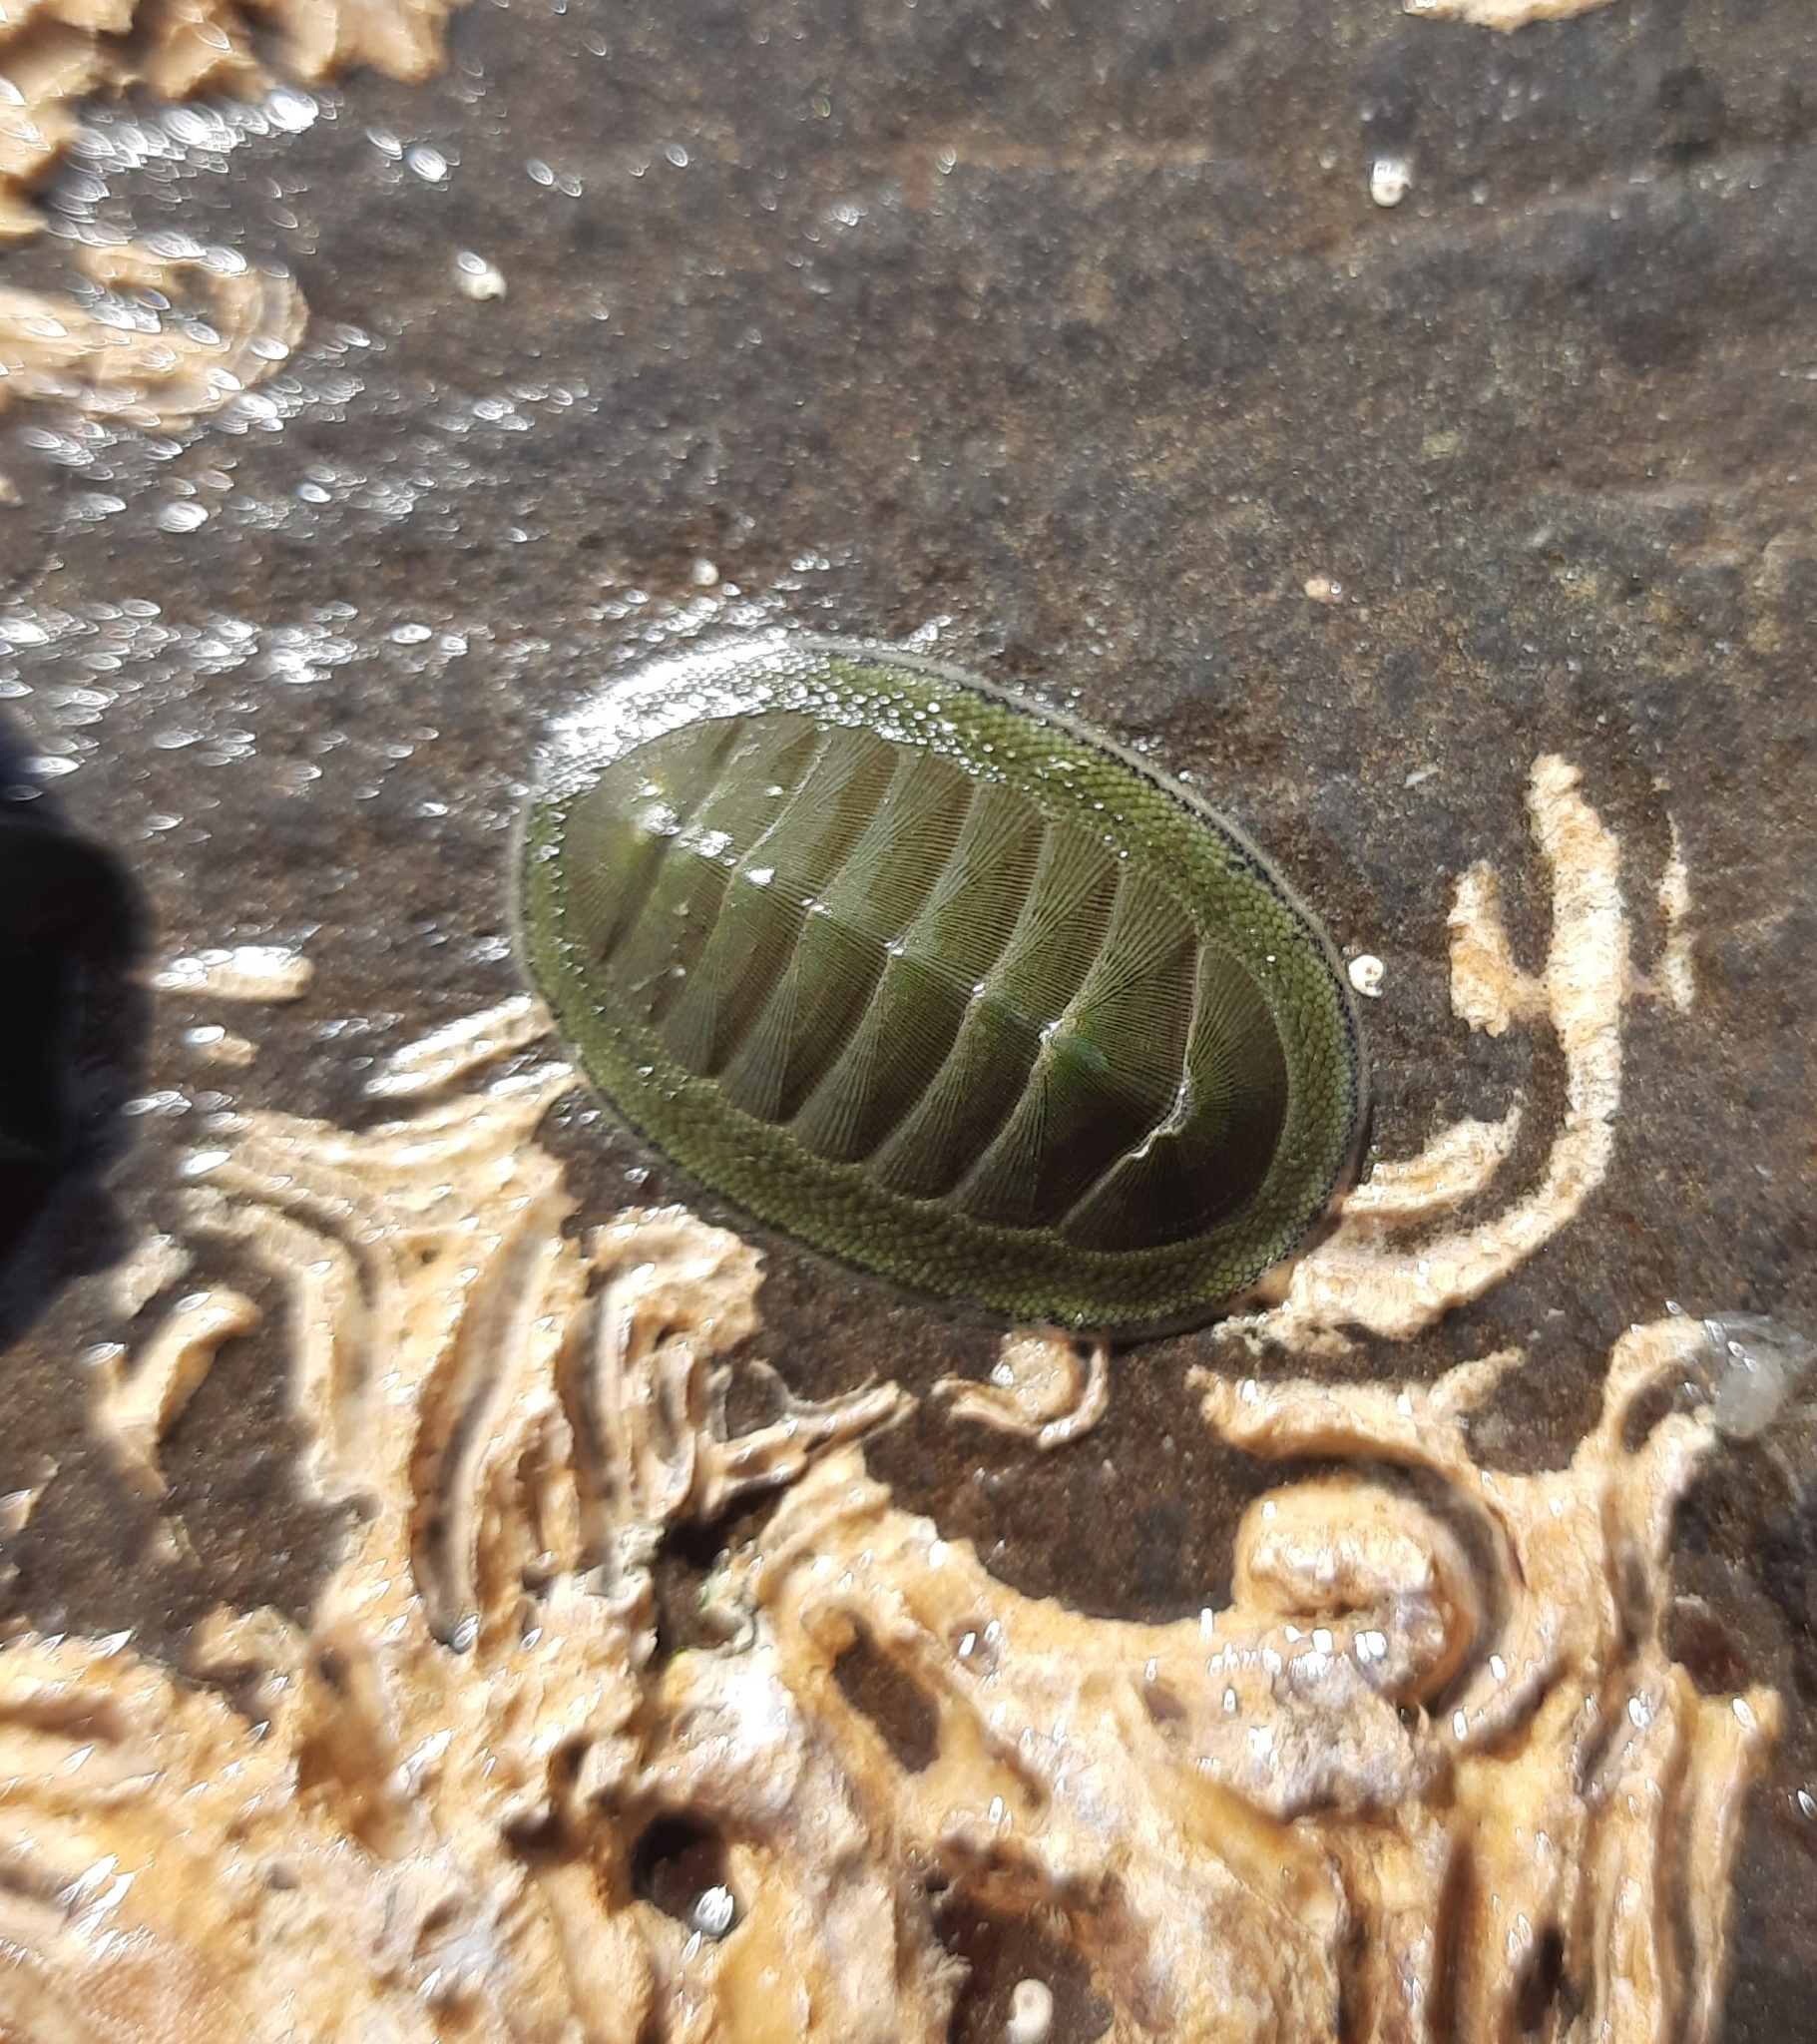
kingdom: Animalia
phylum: Mollusca
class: Polyplacophora
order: Chitonida
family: Chitonidae
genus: Chiton
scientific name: Chiton glaucus
